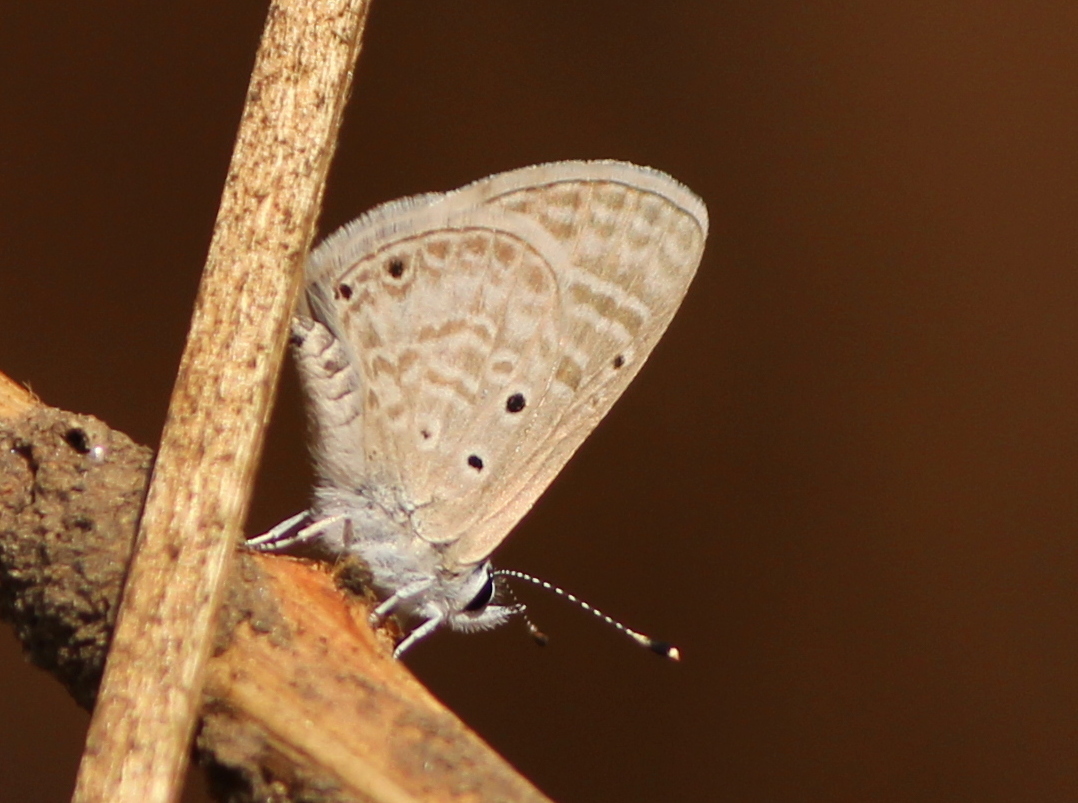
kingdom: Animalia
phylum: Arthropoda
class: Insecta
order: Lepidoptera
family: Lycaenidae
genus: Azanus
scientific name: Azanus uranus
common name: Dull babul blue
